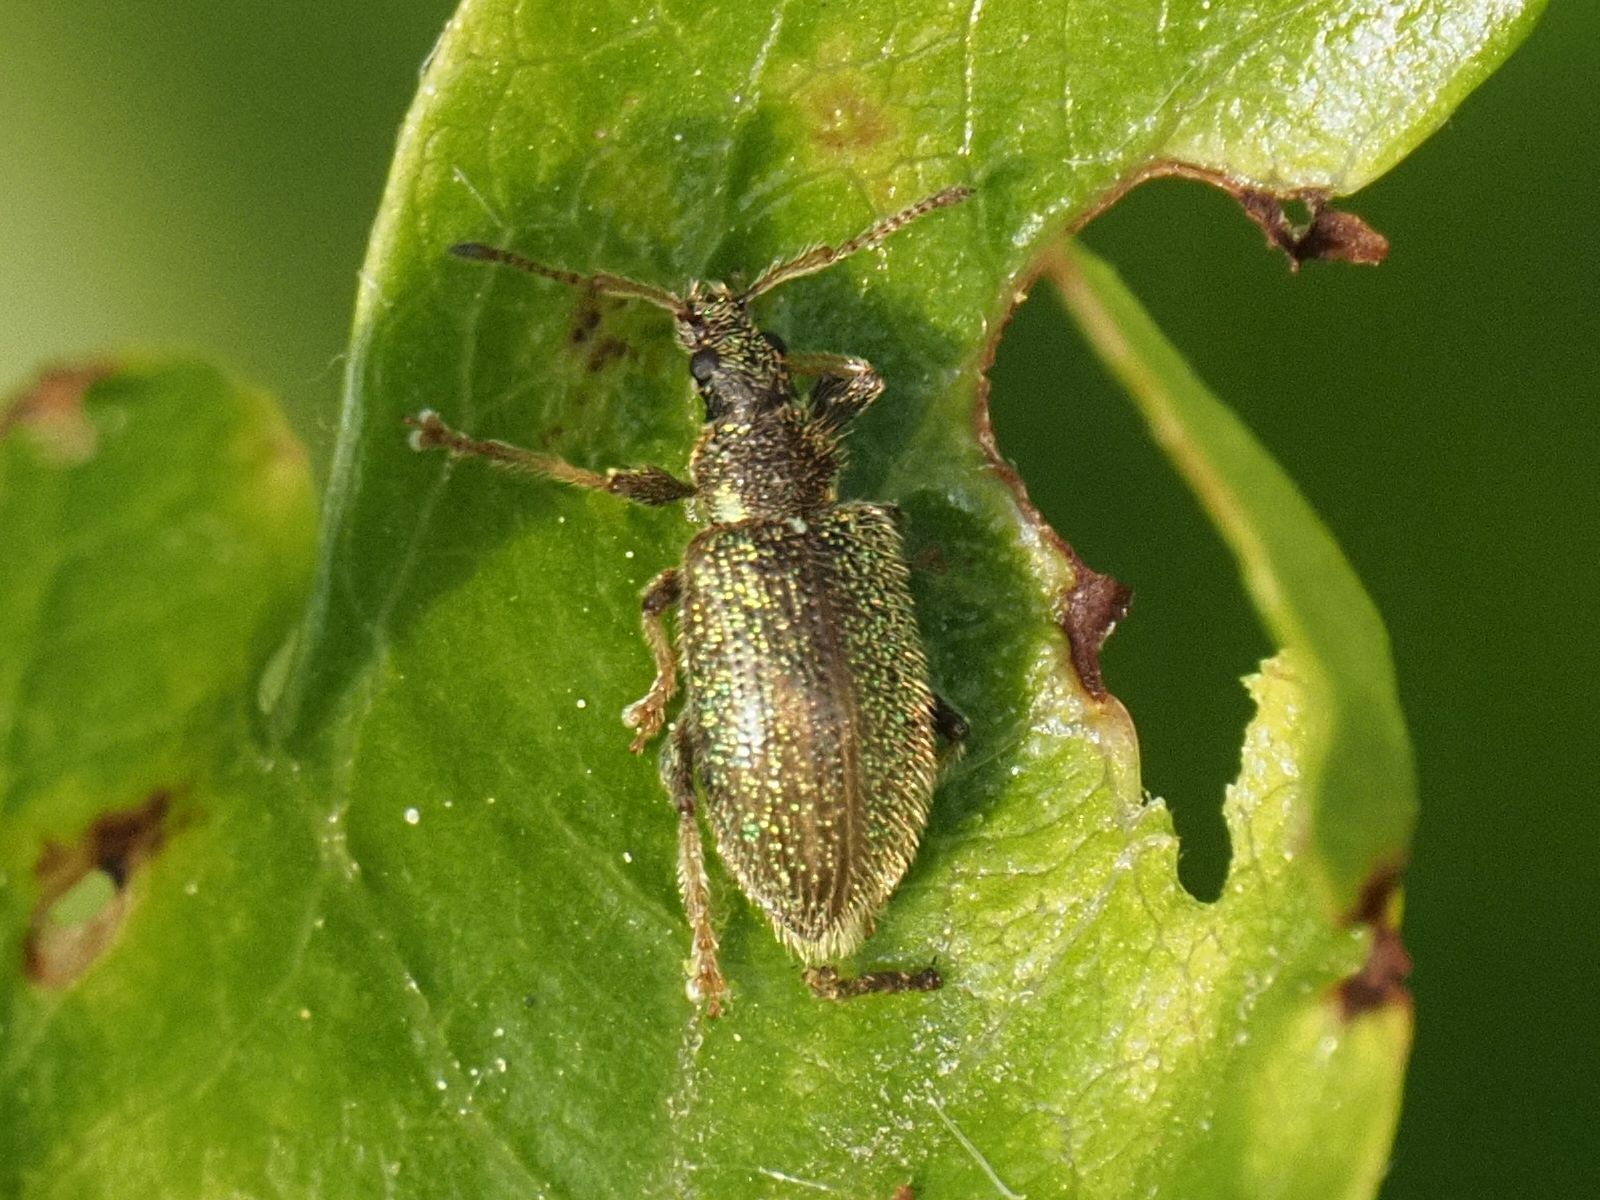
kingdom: Animalia
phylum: Arthropoda
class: Insecta
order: Coleoptera
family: Curculionidae
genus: Phyllobius
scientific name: Phyllobius betulinus
